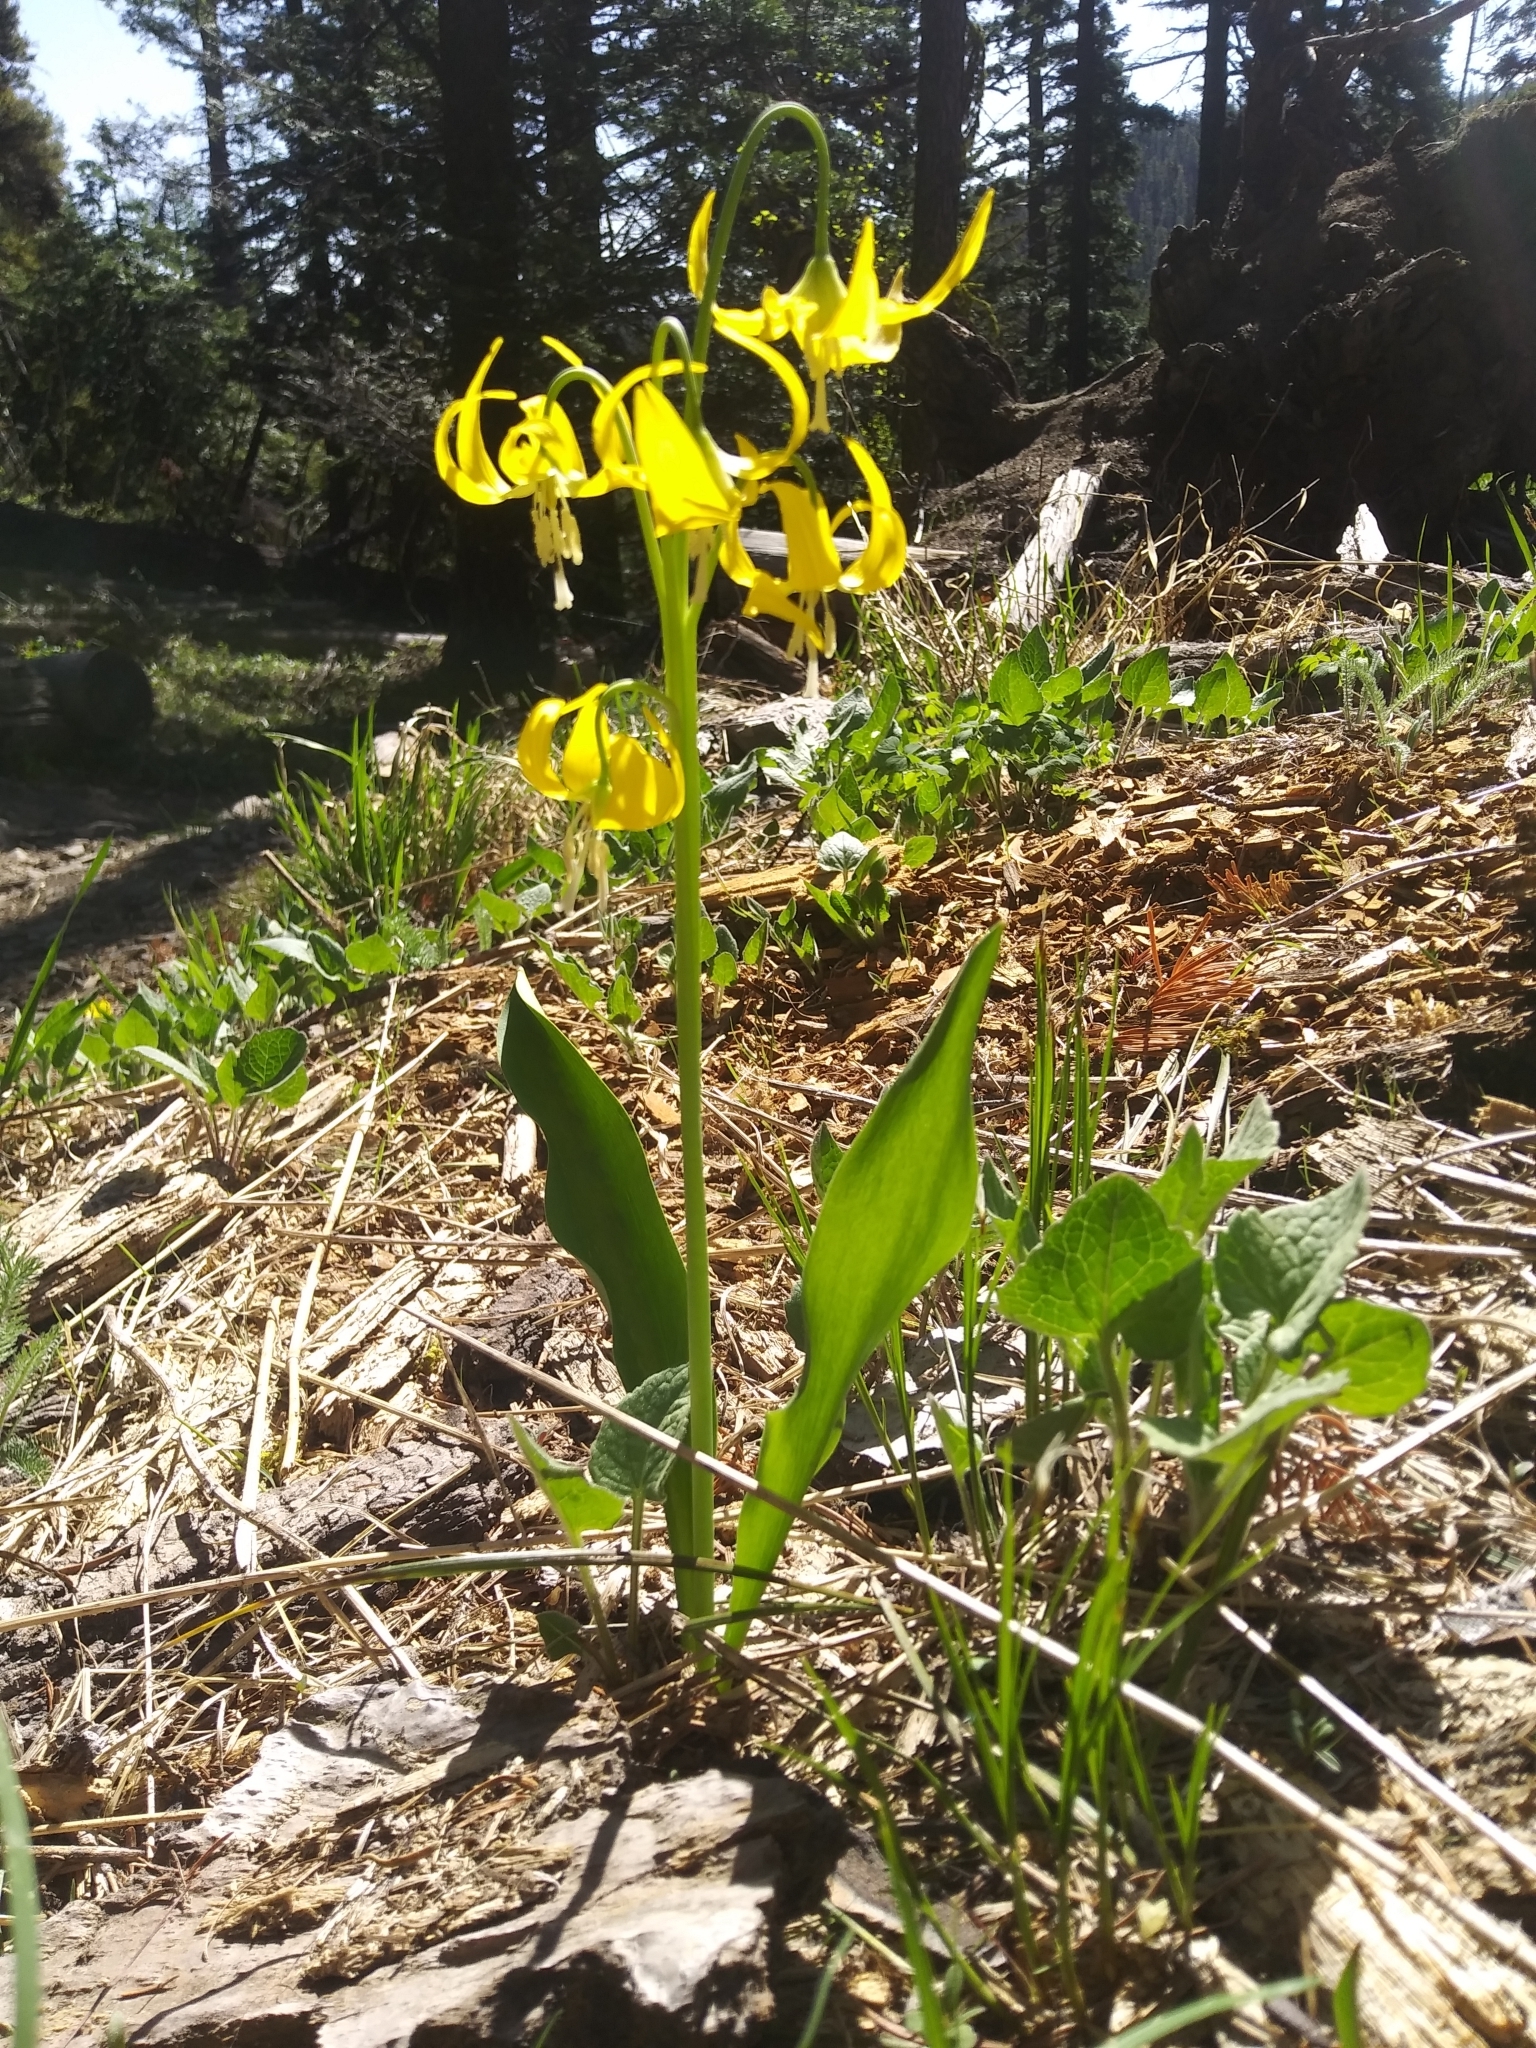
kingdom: Plantae
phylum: Tracheophyta
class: Liliopsida
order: Liliales
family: Liliaceae
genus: Erythronium
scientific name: Erythronium grandiflorum
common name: Avalanche-lily
